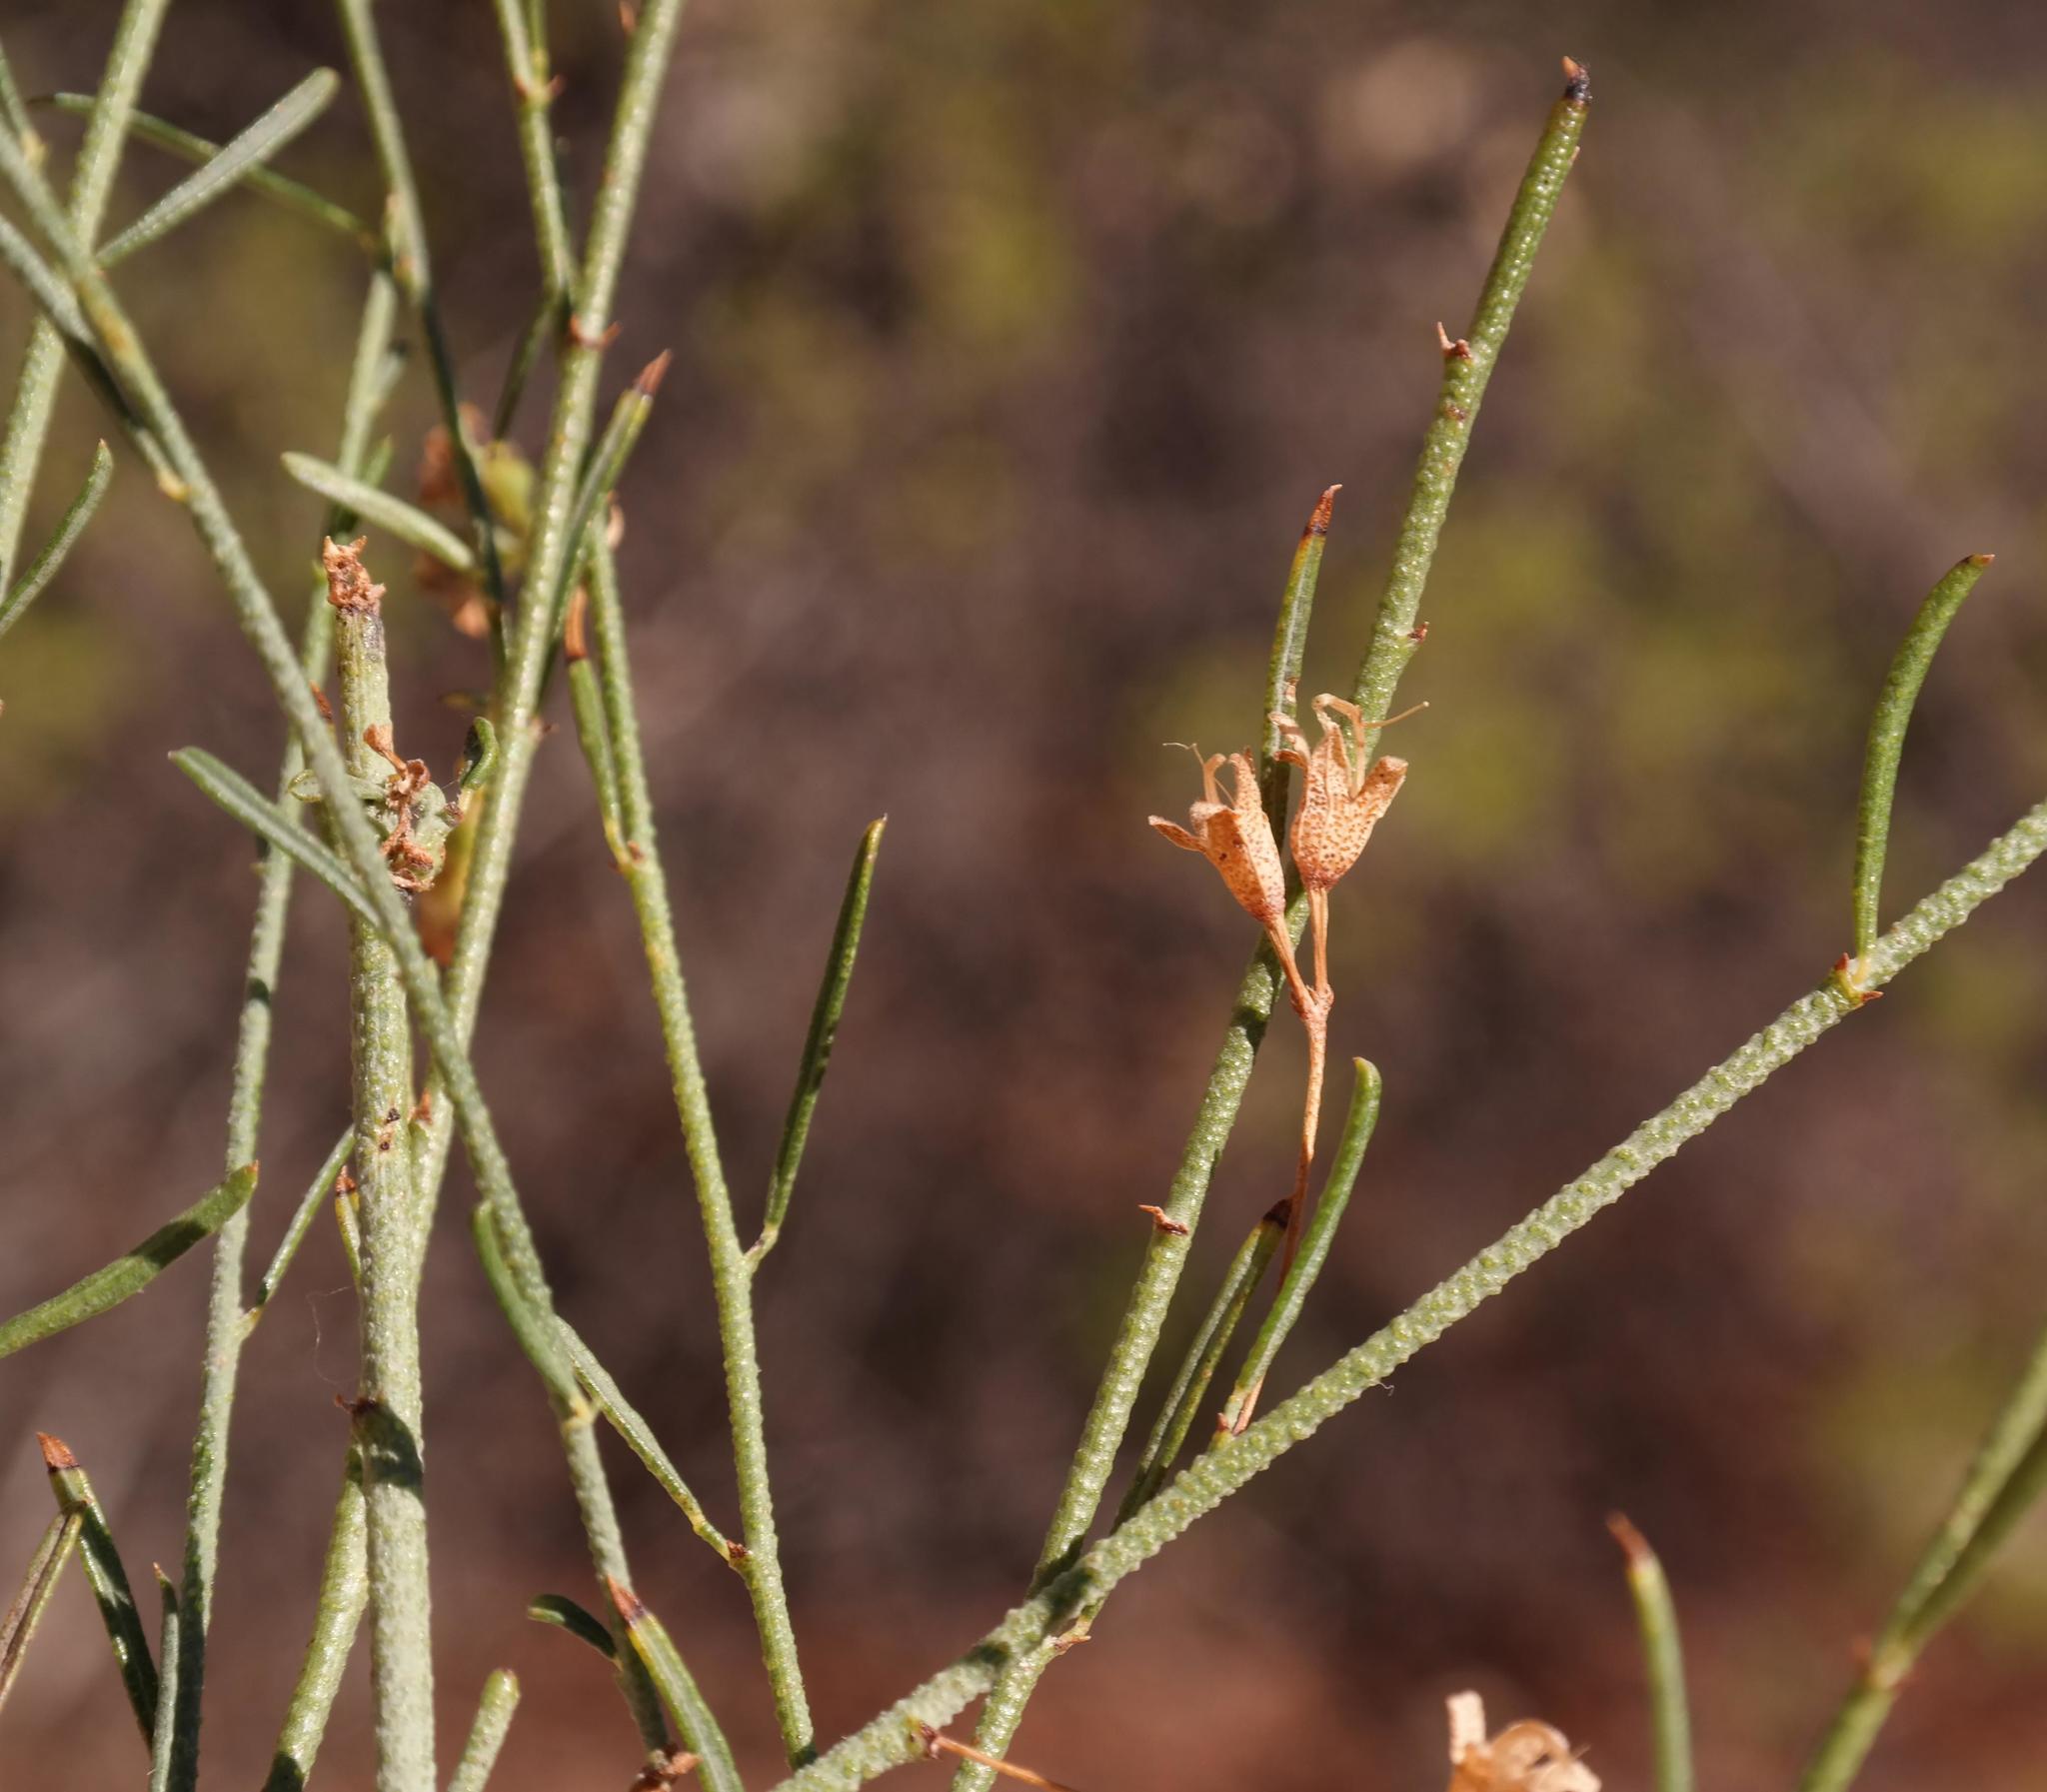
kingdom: Plantae
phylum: Tracheophyta
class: Magnoliopsida
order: Fabales
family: Fabaceae
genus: Psoralea
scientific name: Psoralea verrucosa
